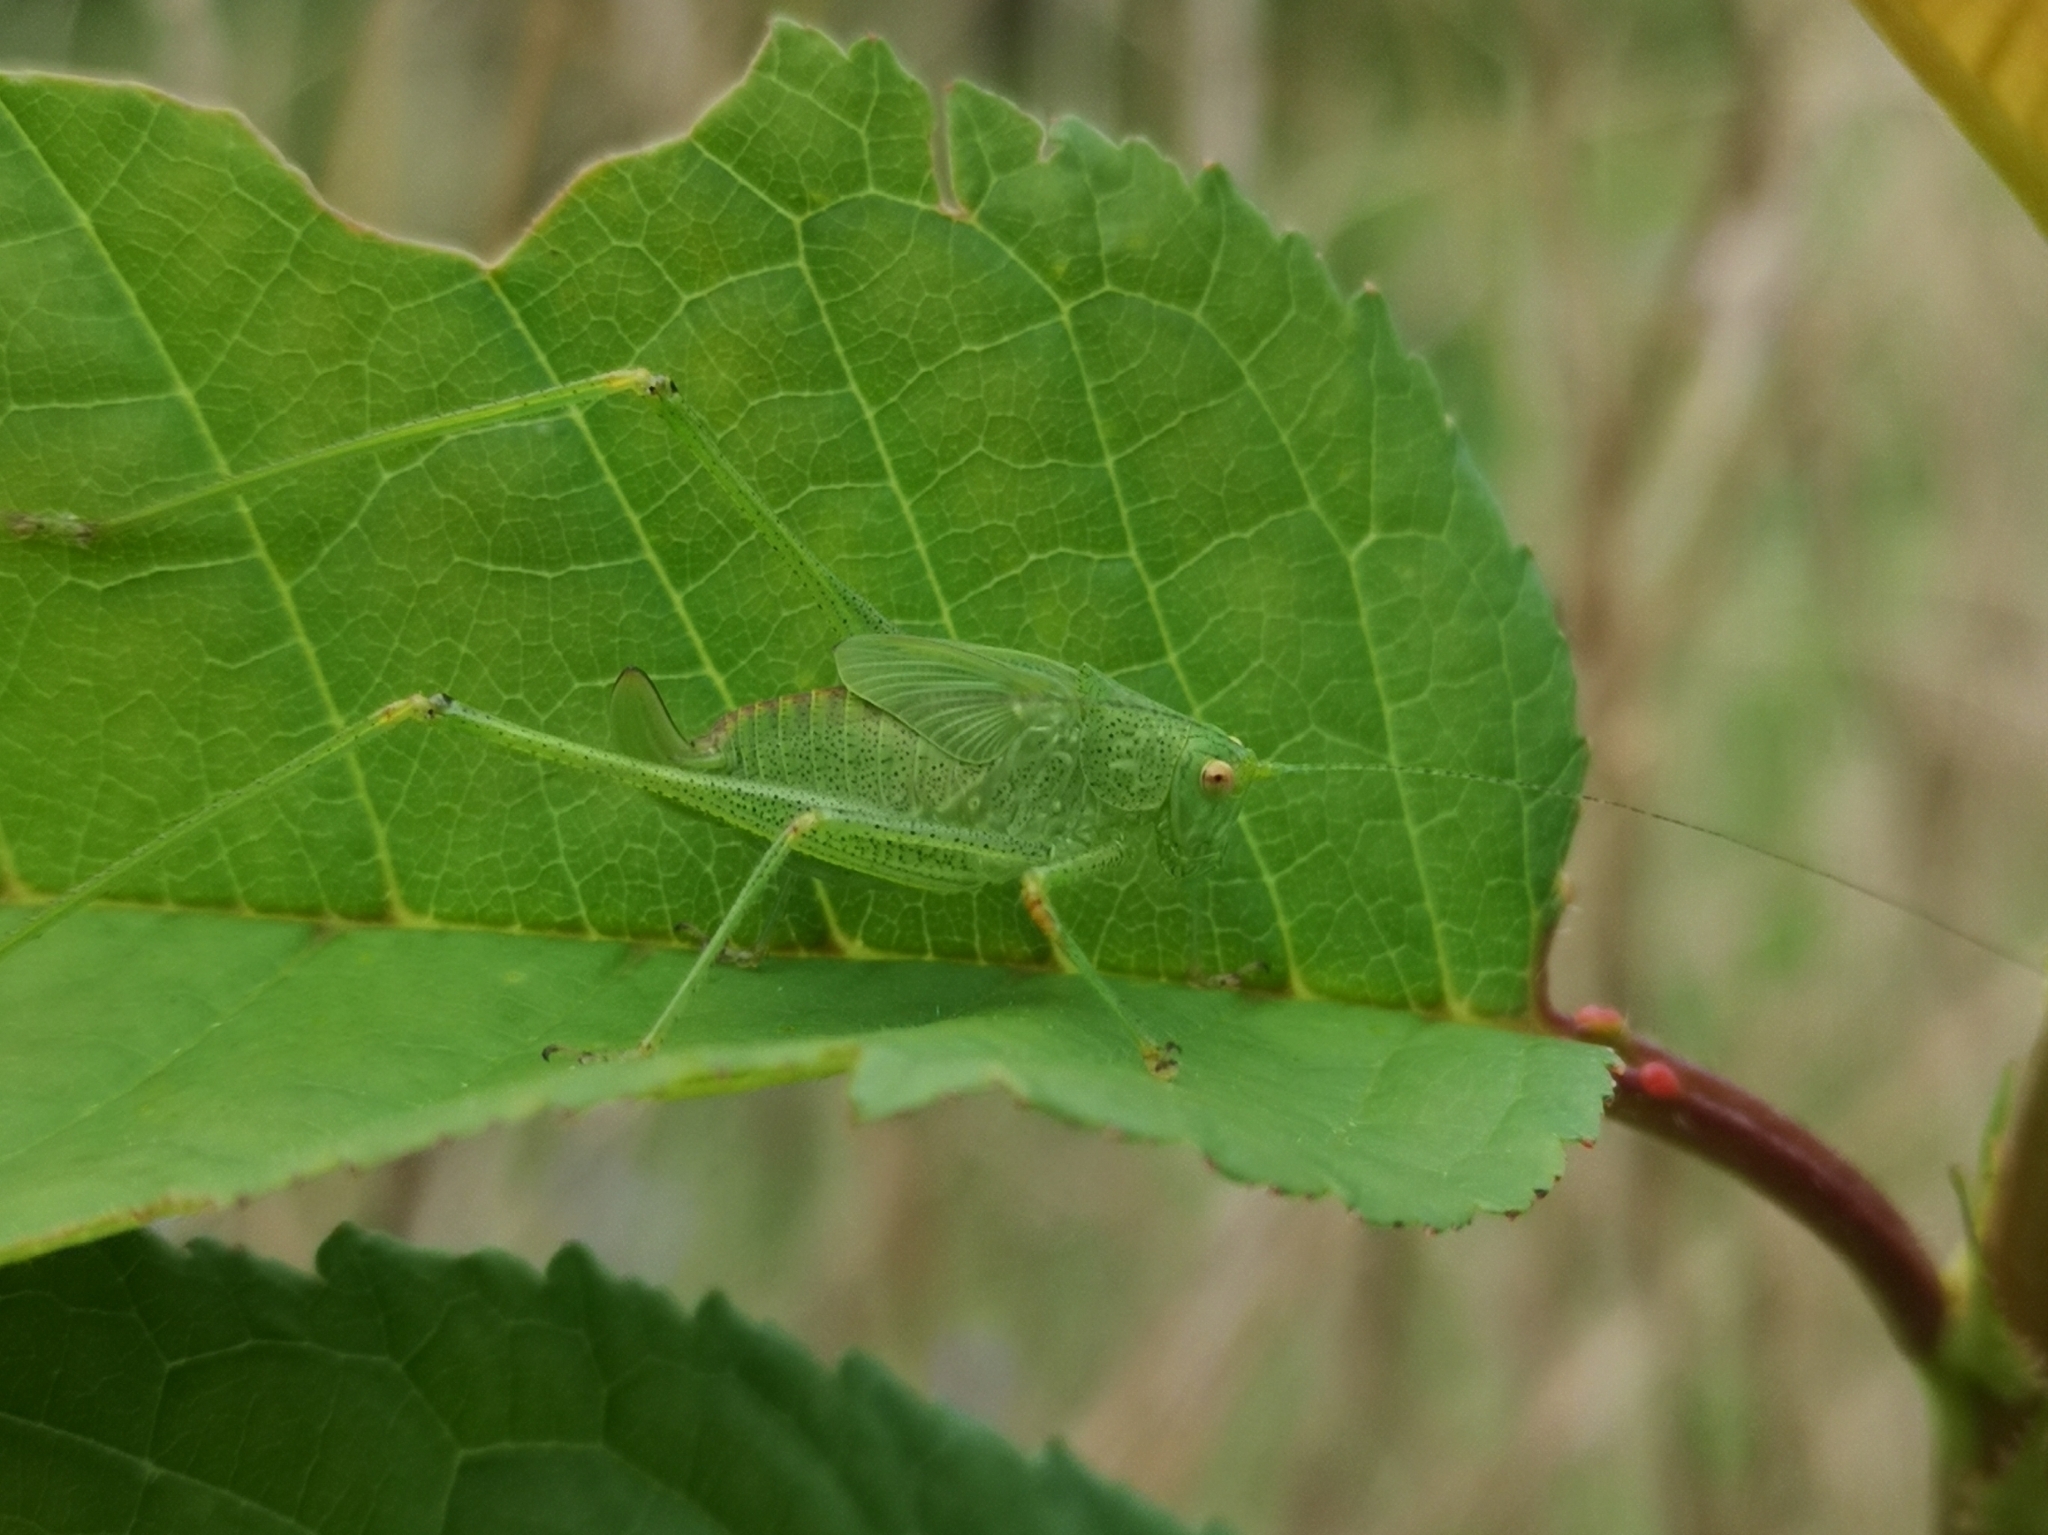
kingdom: Animalia
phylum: Arthropoda
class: Insecta
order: Orthoptera
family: Tettigoniidae
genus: Phaneroptera
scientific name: Phaneroptera nana
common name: Southern sickle bush-cricket
